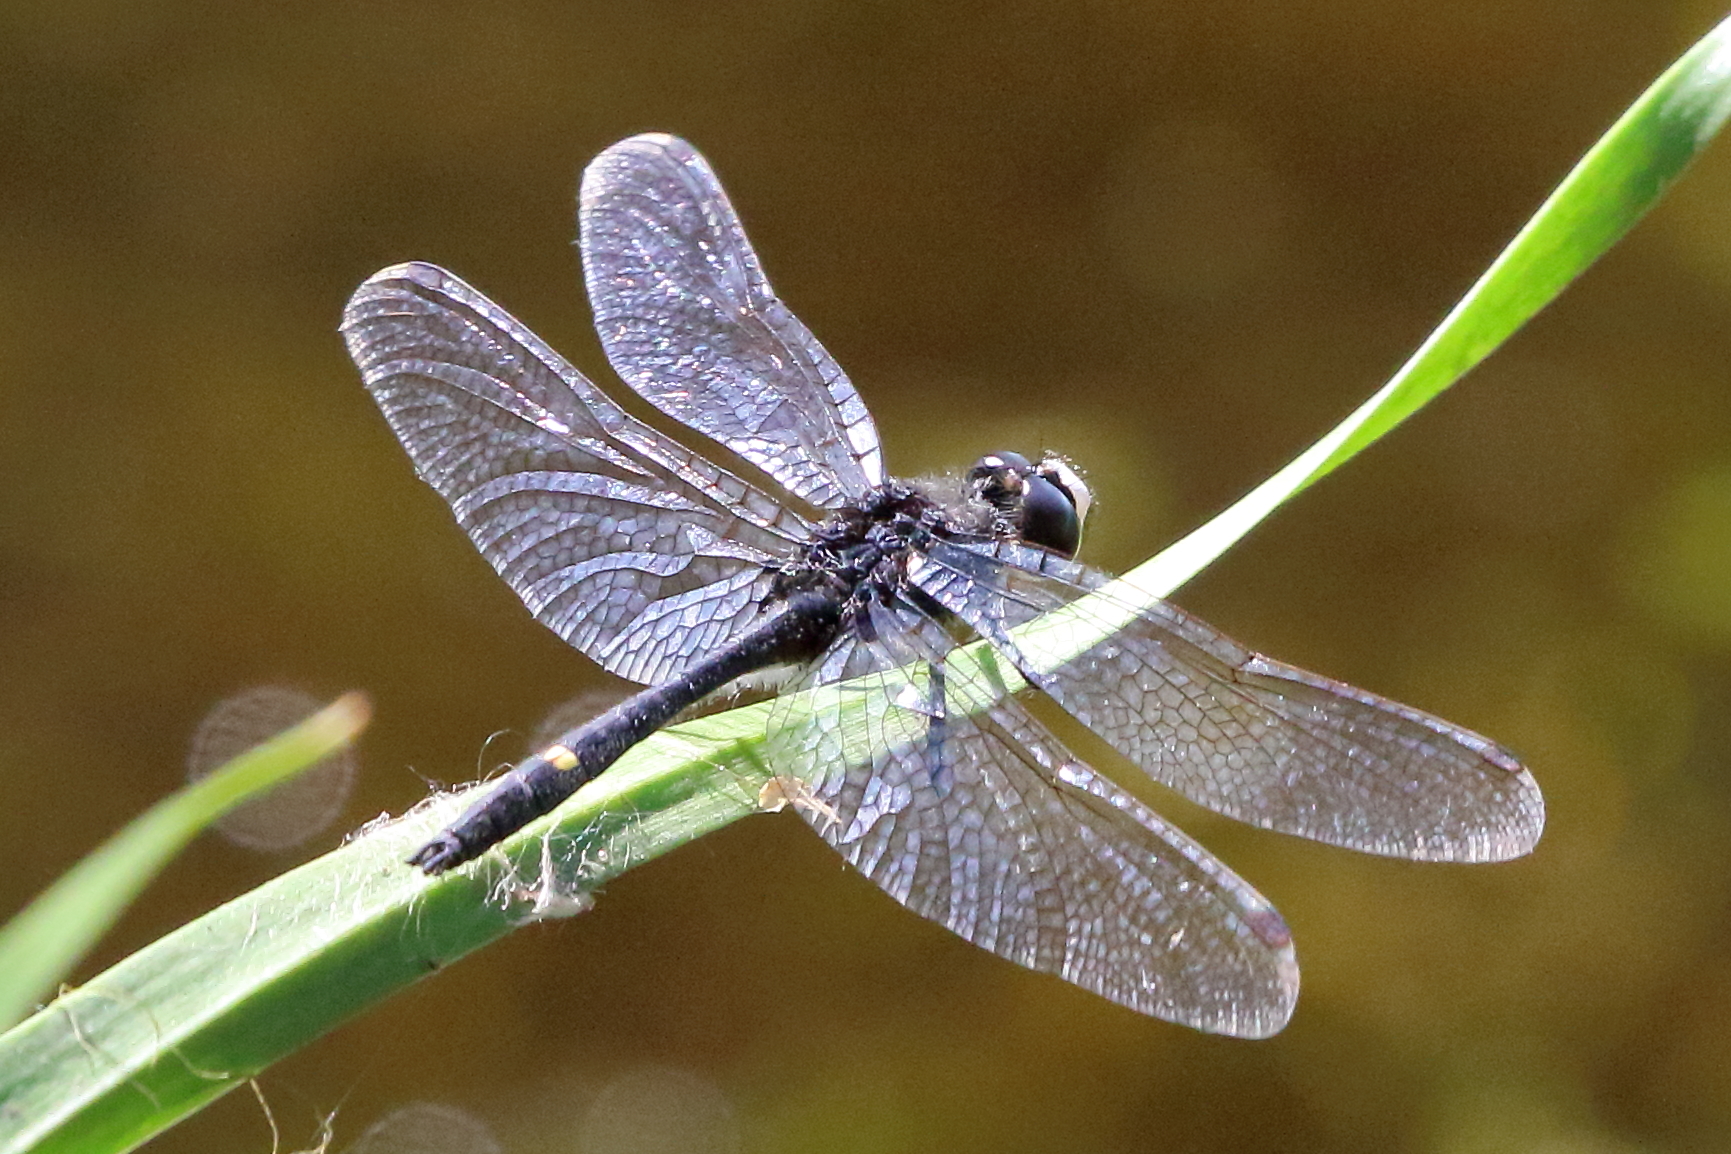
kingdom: Animalia
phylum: Arthropoda
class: Insecta
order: Odonata
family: Libellulidae
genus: Leucorrhinia
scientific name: Leucorrhinia intacta
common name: Dot-tailed whiteface
